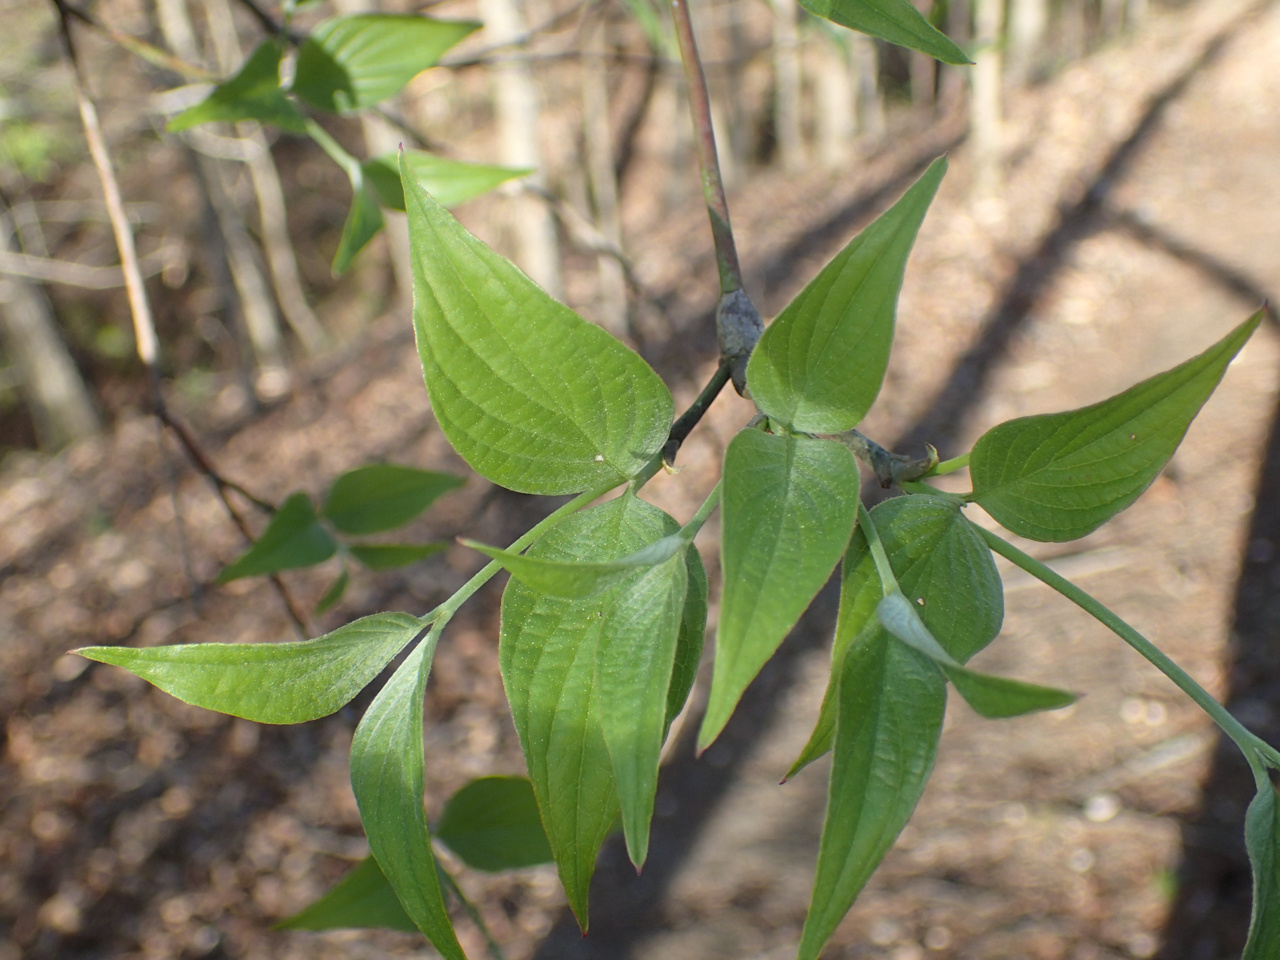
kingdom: Plantae
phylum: Tracheophyta
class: Magnoliopsida
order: Cornales
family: Cornaceae
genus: Cornus
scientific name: Cornus florida
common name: Flowering dogwood
